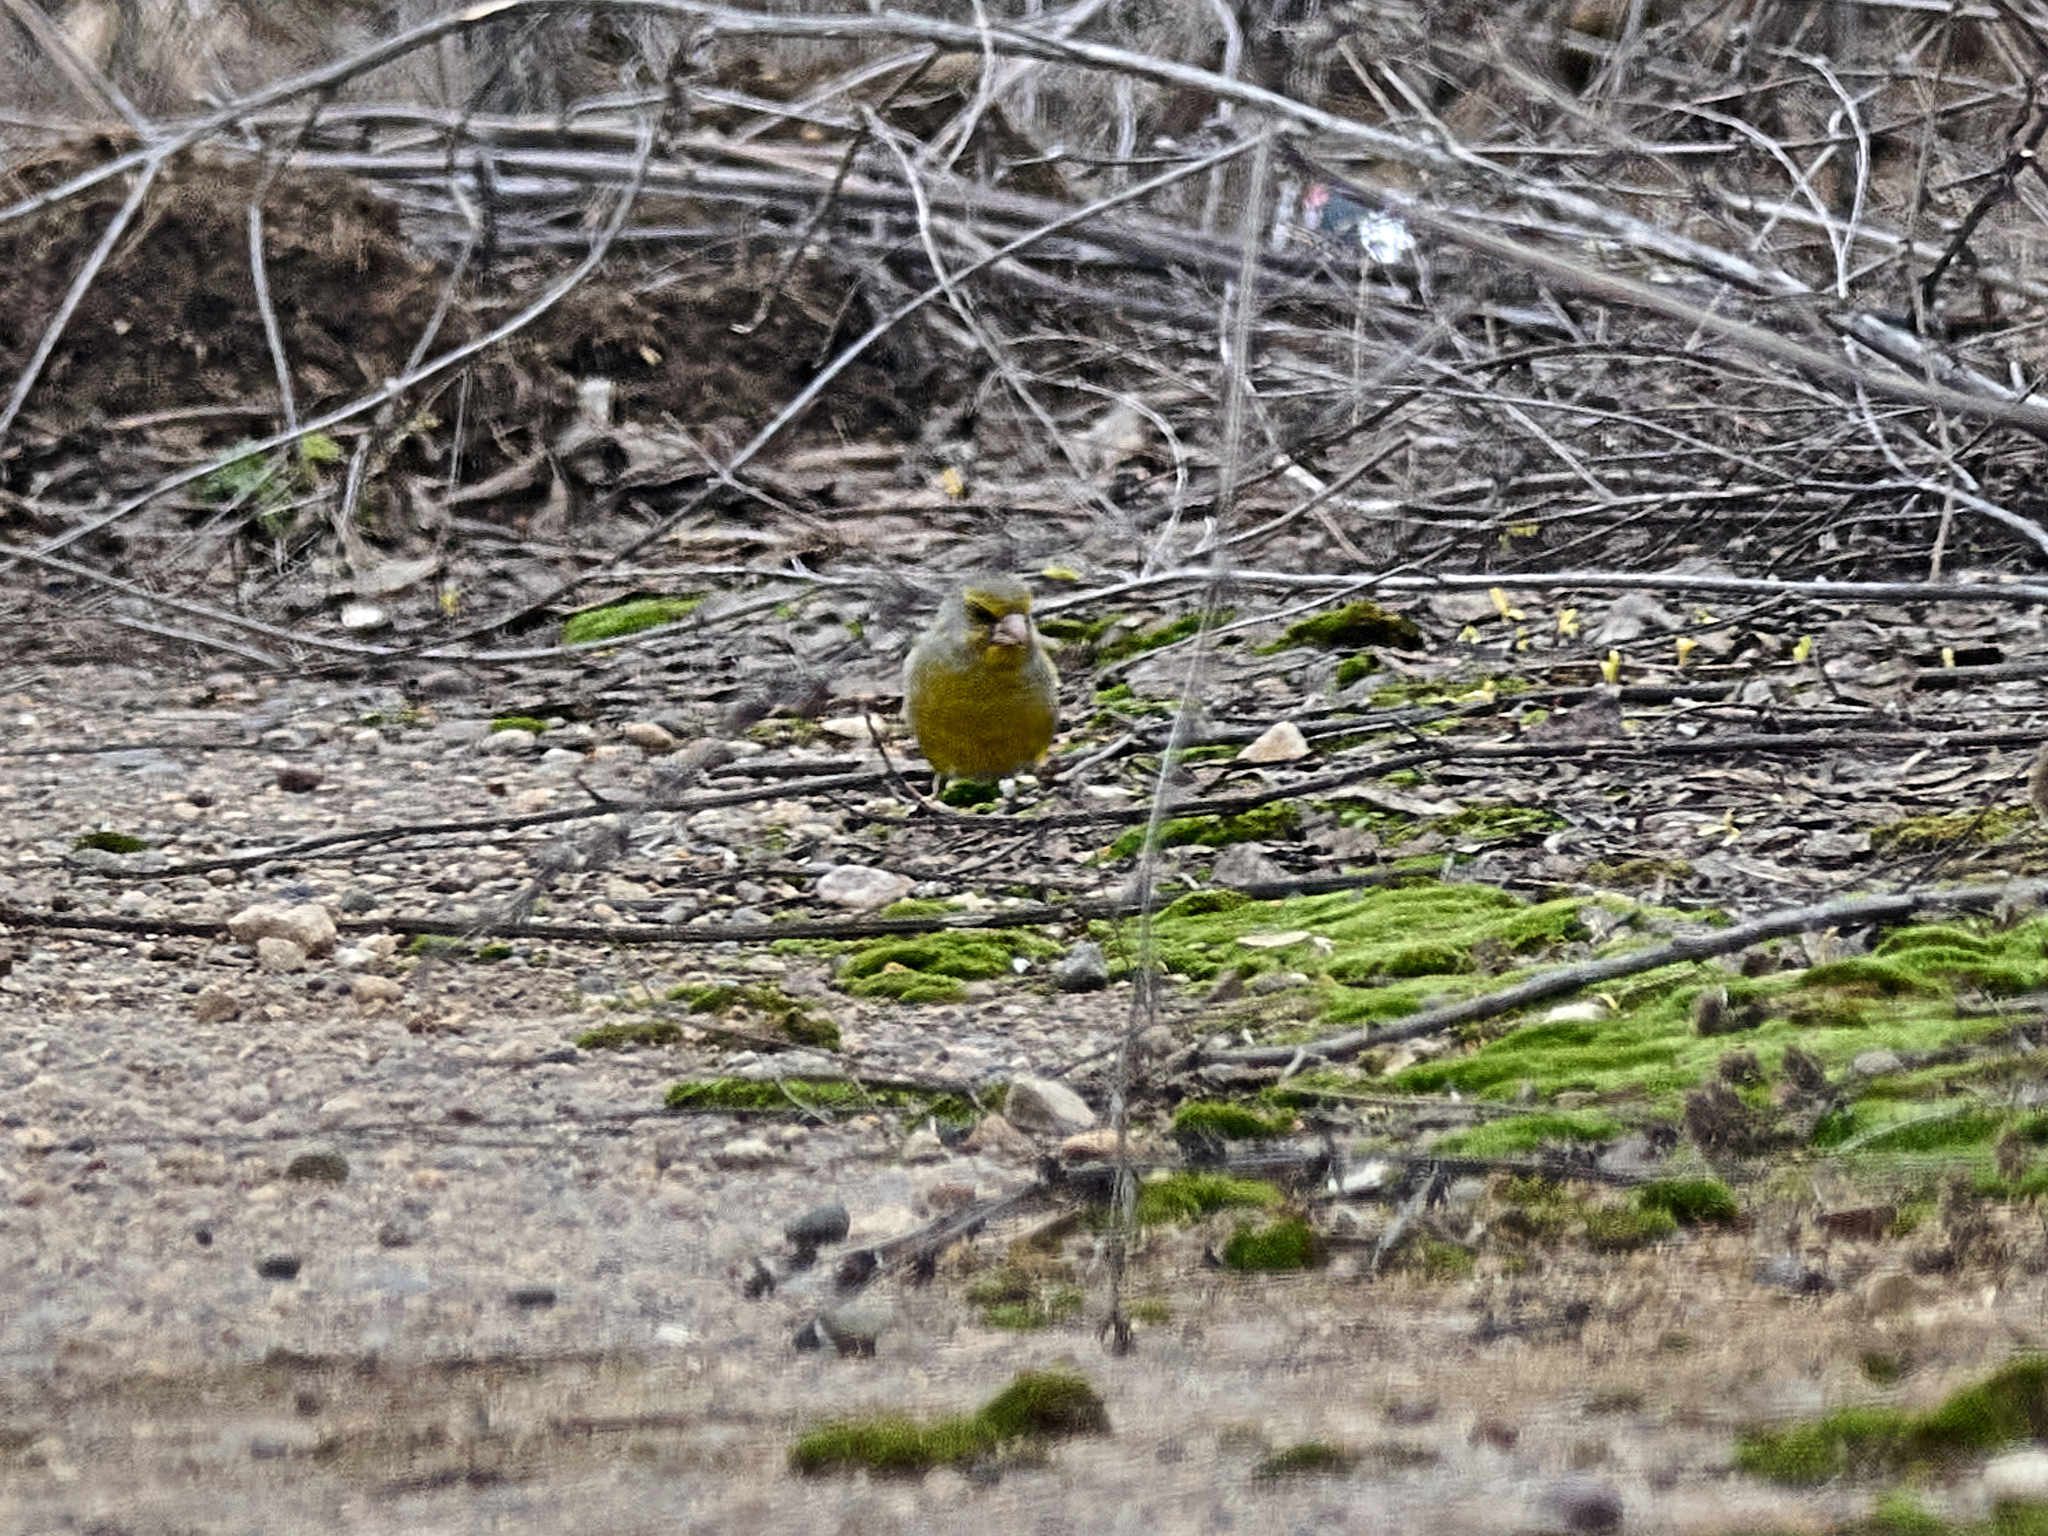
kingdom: Plantae
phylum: Tracheophyta
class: Liliopsida
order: Poales
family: Poaceae
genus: Chloris
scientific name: Chloris chloris
